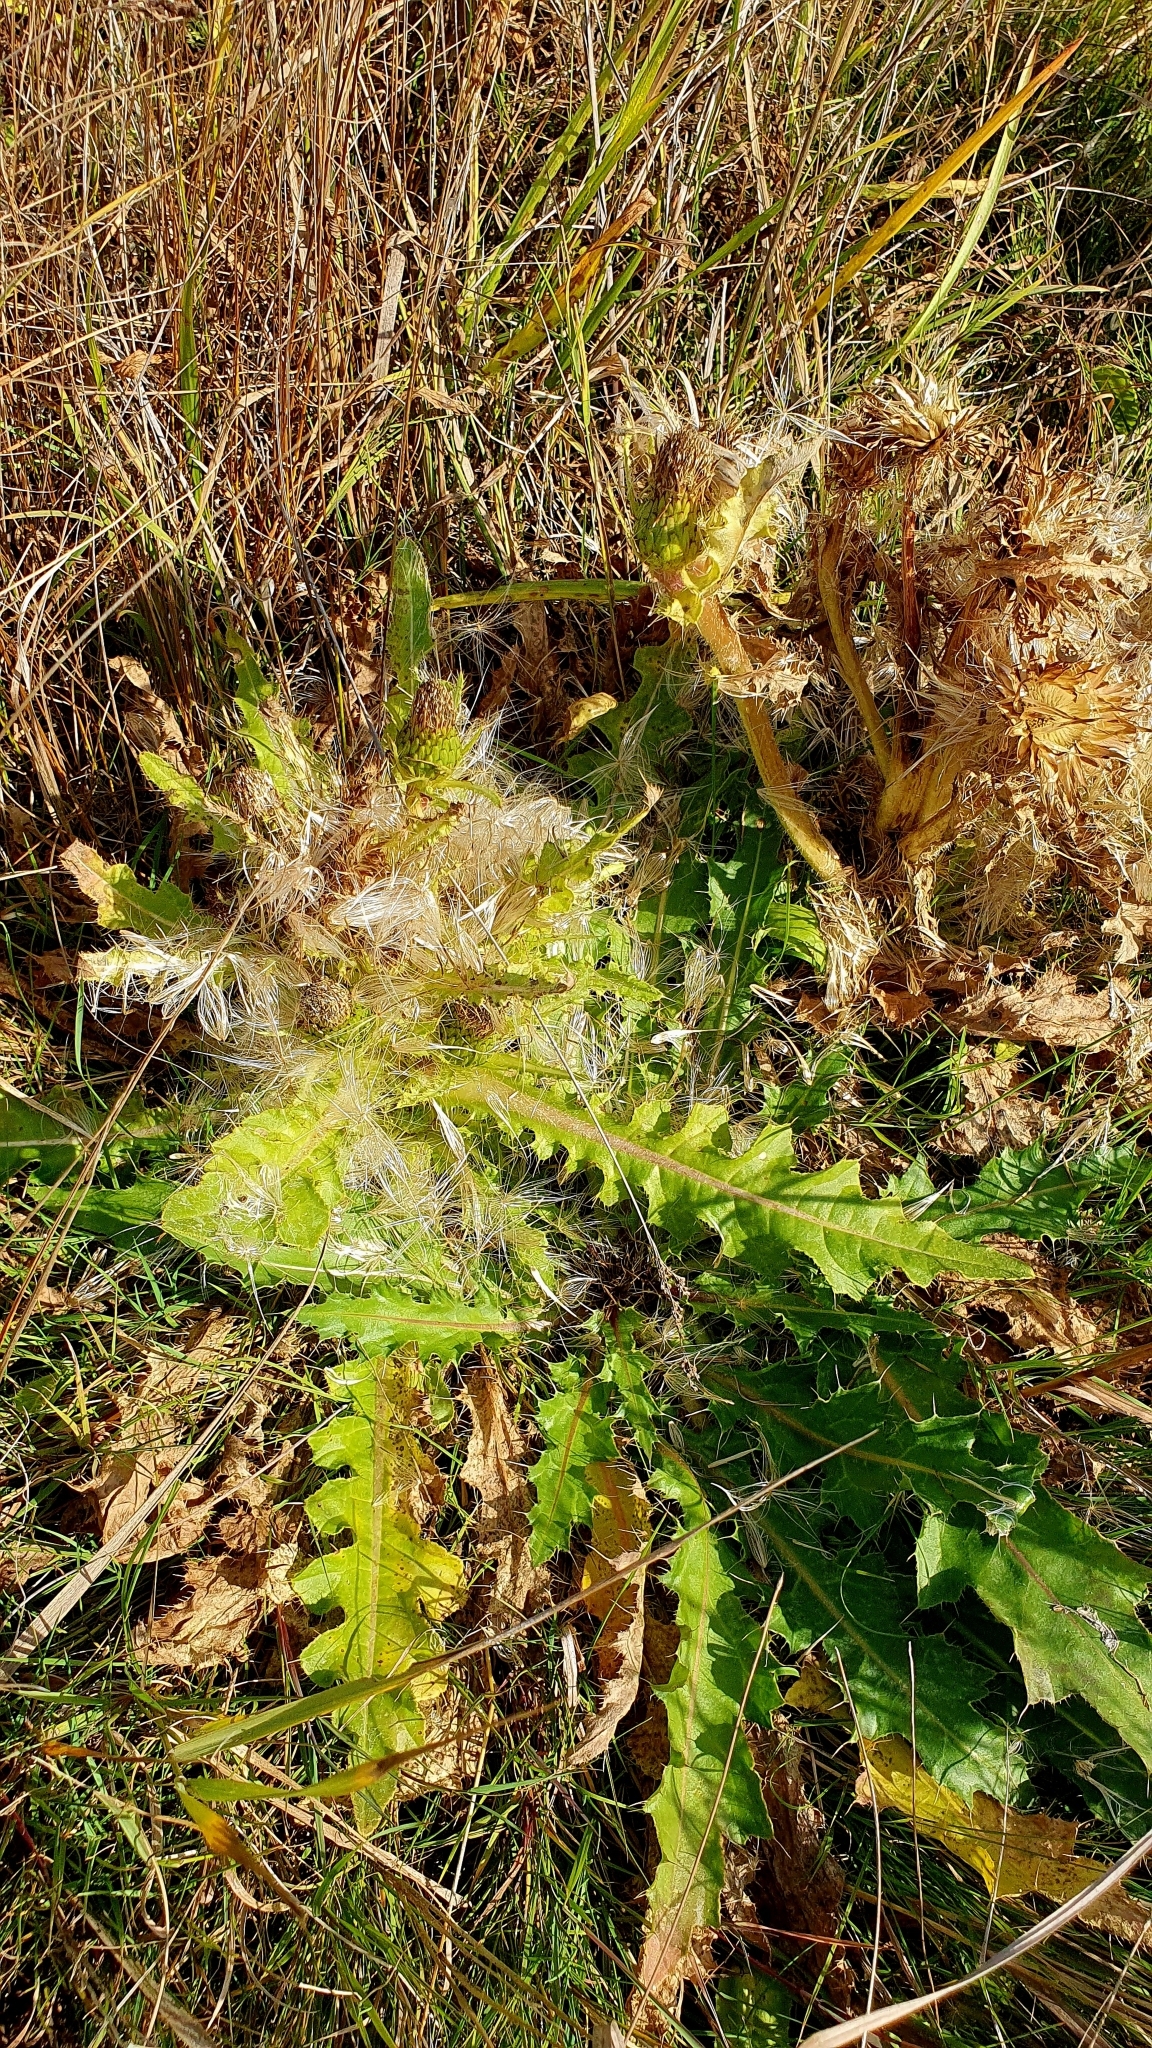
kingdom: Plantae
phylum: Tracheophyta
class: Magnoliopsida
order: Asterales
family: Asteraceae
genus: Cirsium
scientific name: Cirsium esculentum
